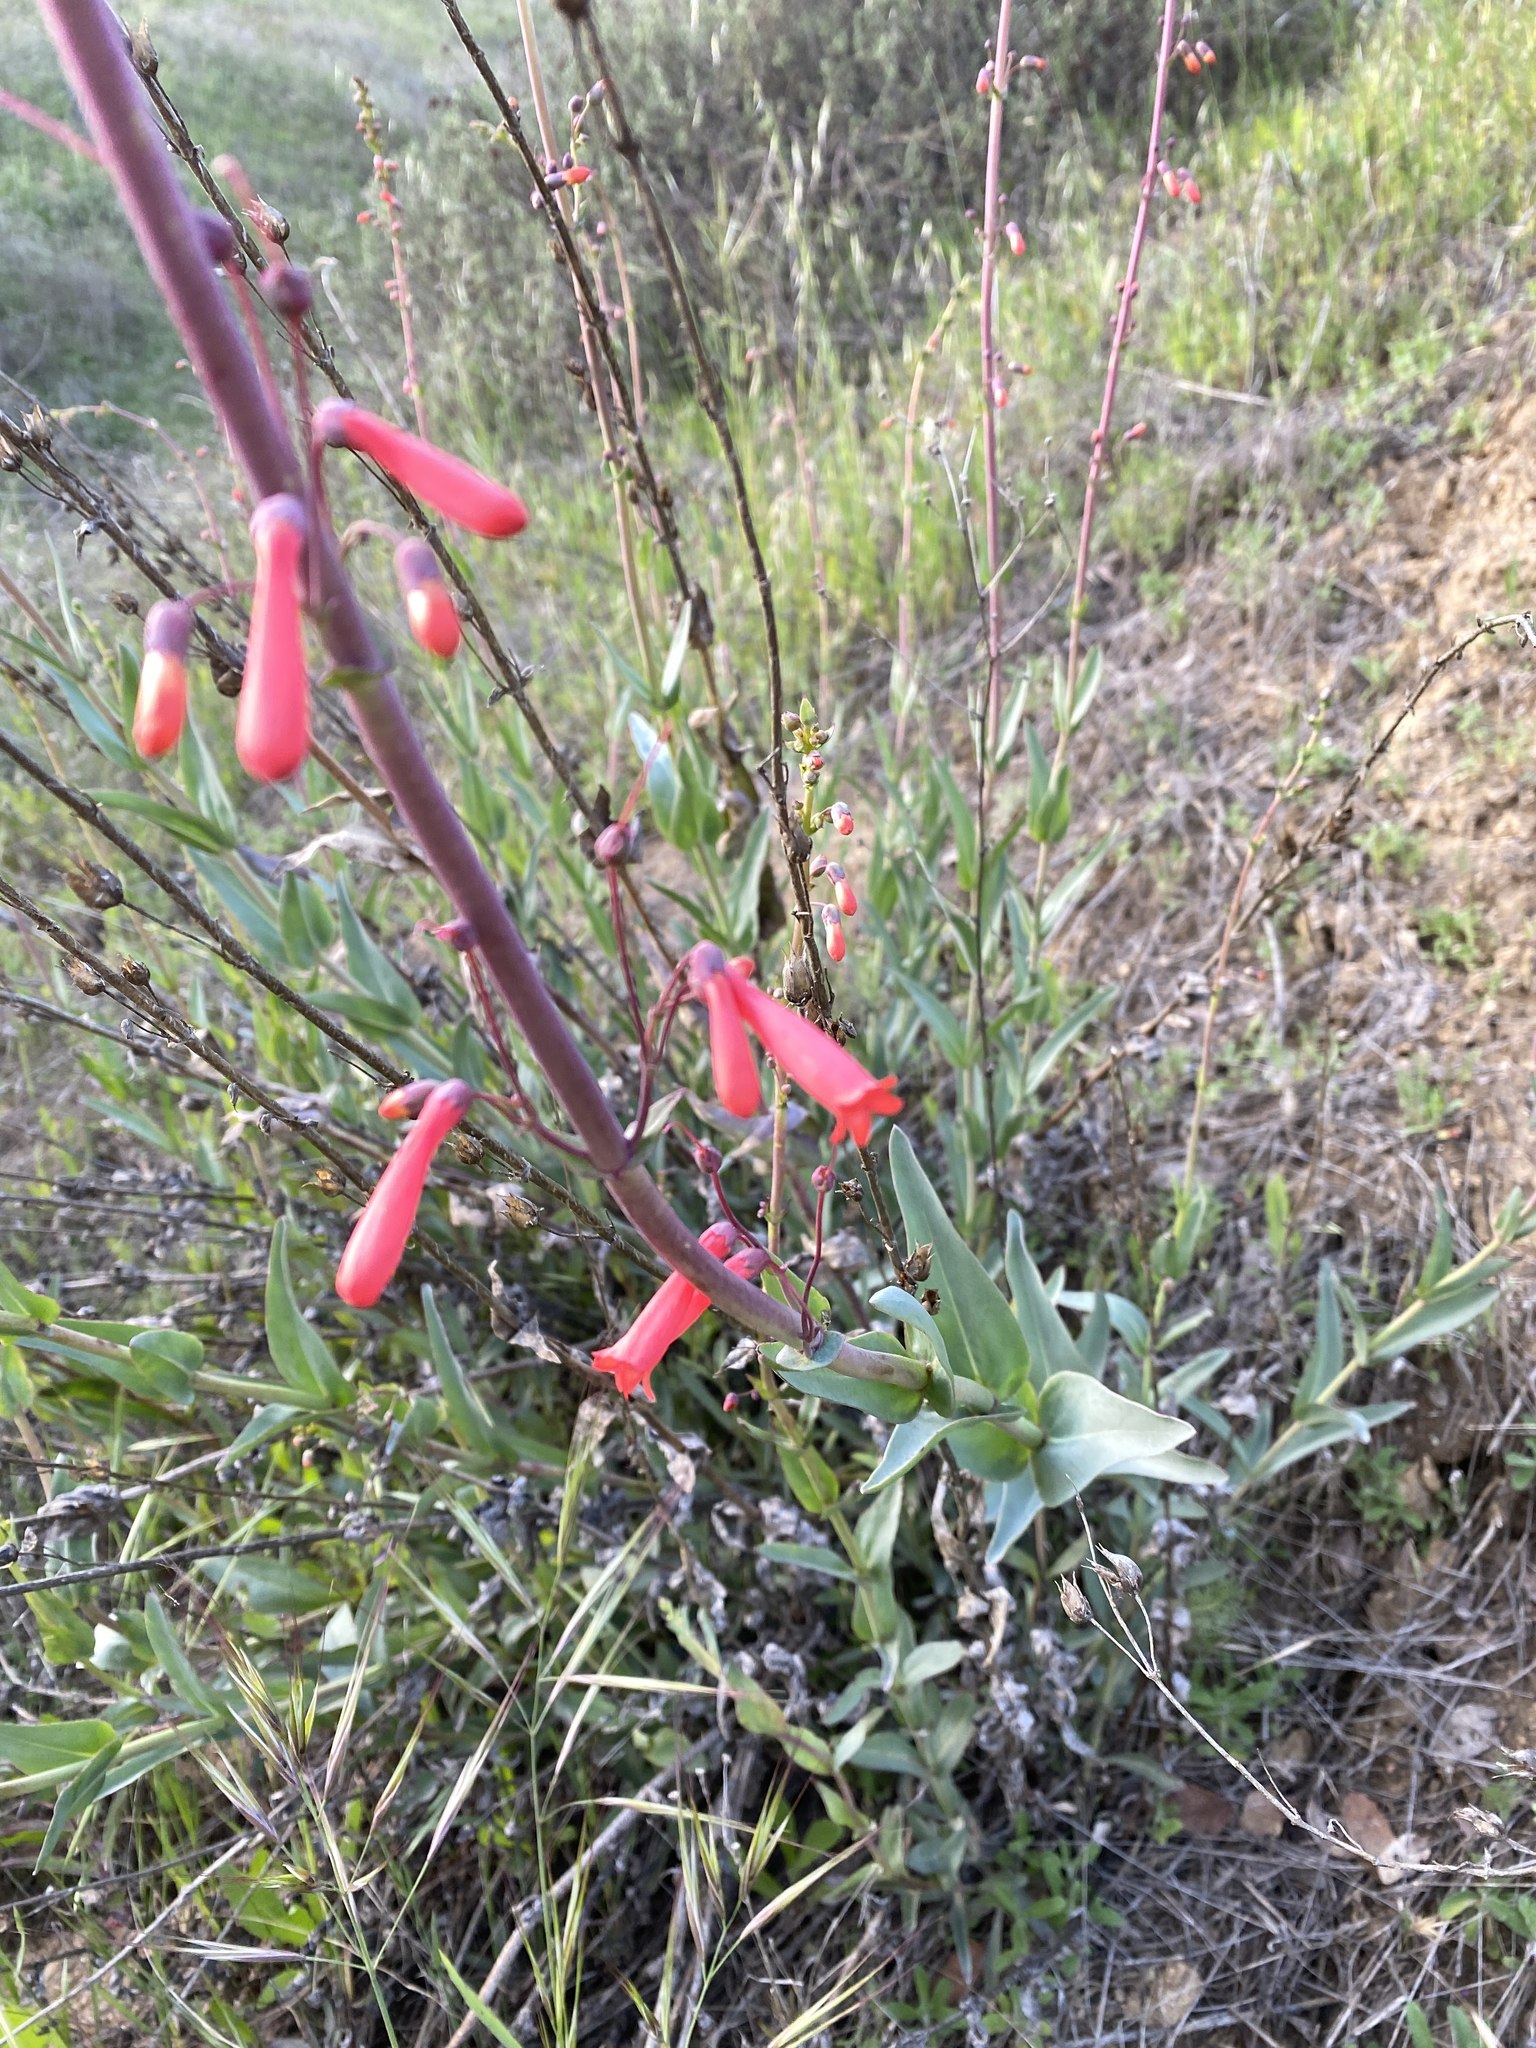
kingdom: Plantae
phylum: Tracheophyta
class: Magnoliopsida
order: Lamiales
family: Plantaginaceae
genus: Penstemon
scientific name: Penstemon centranthifolius
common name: Scarlet bugler
